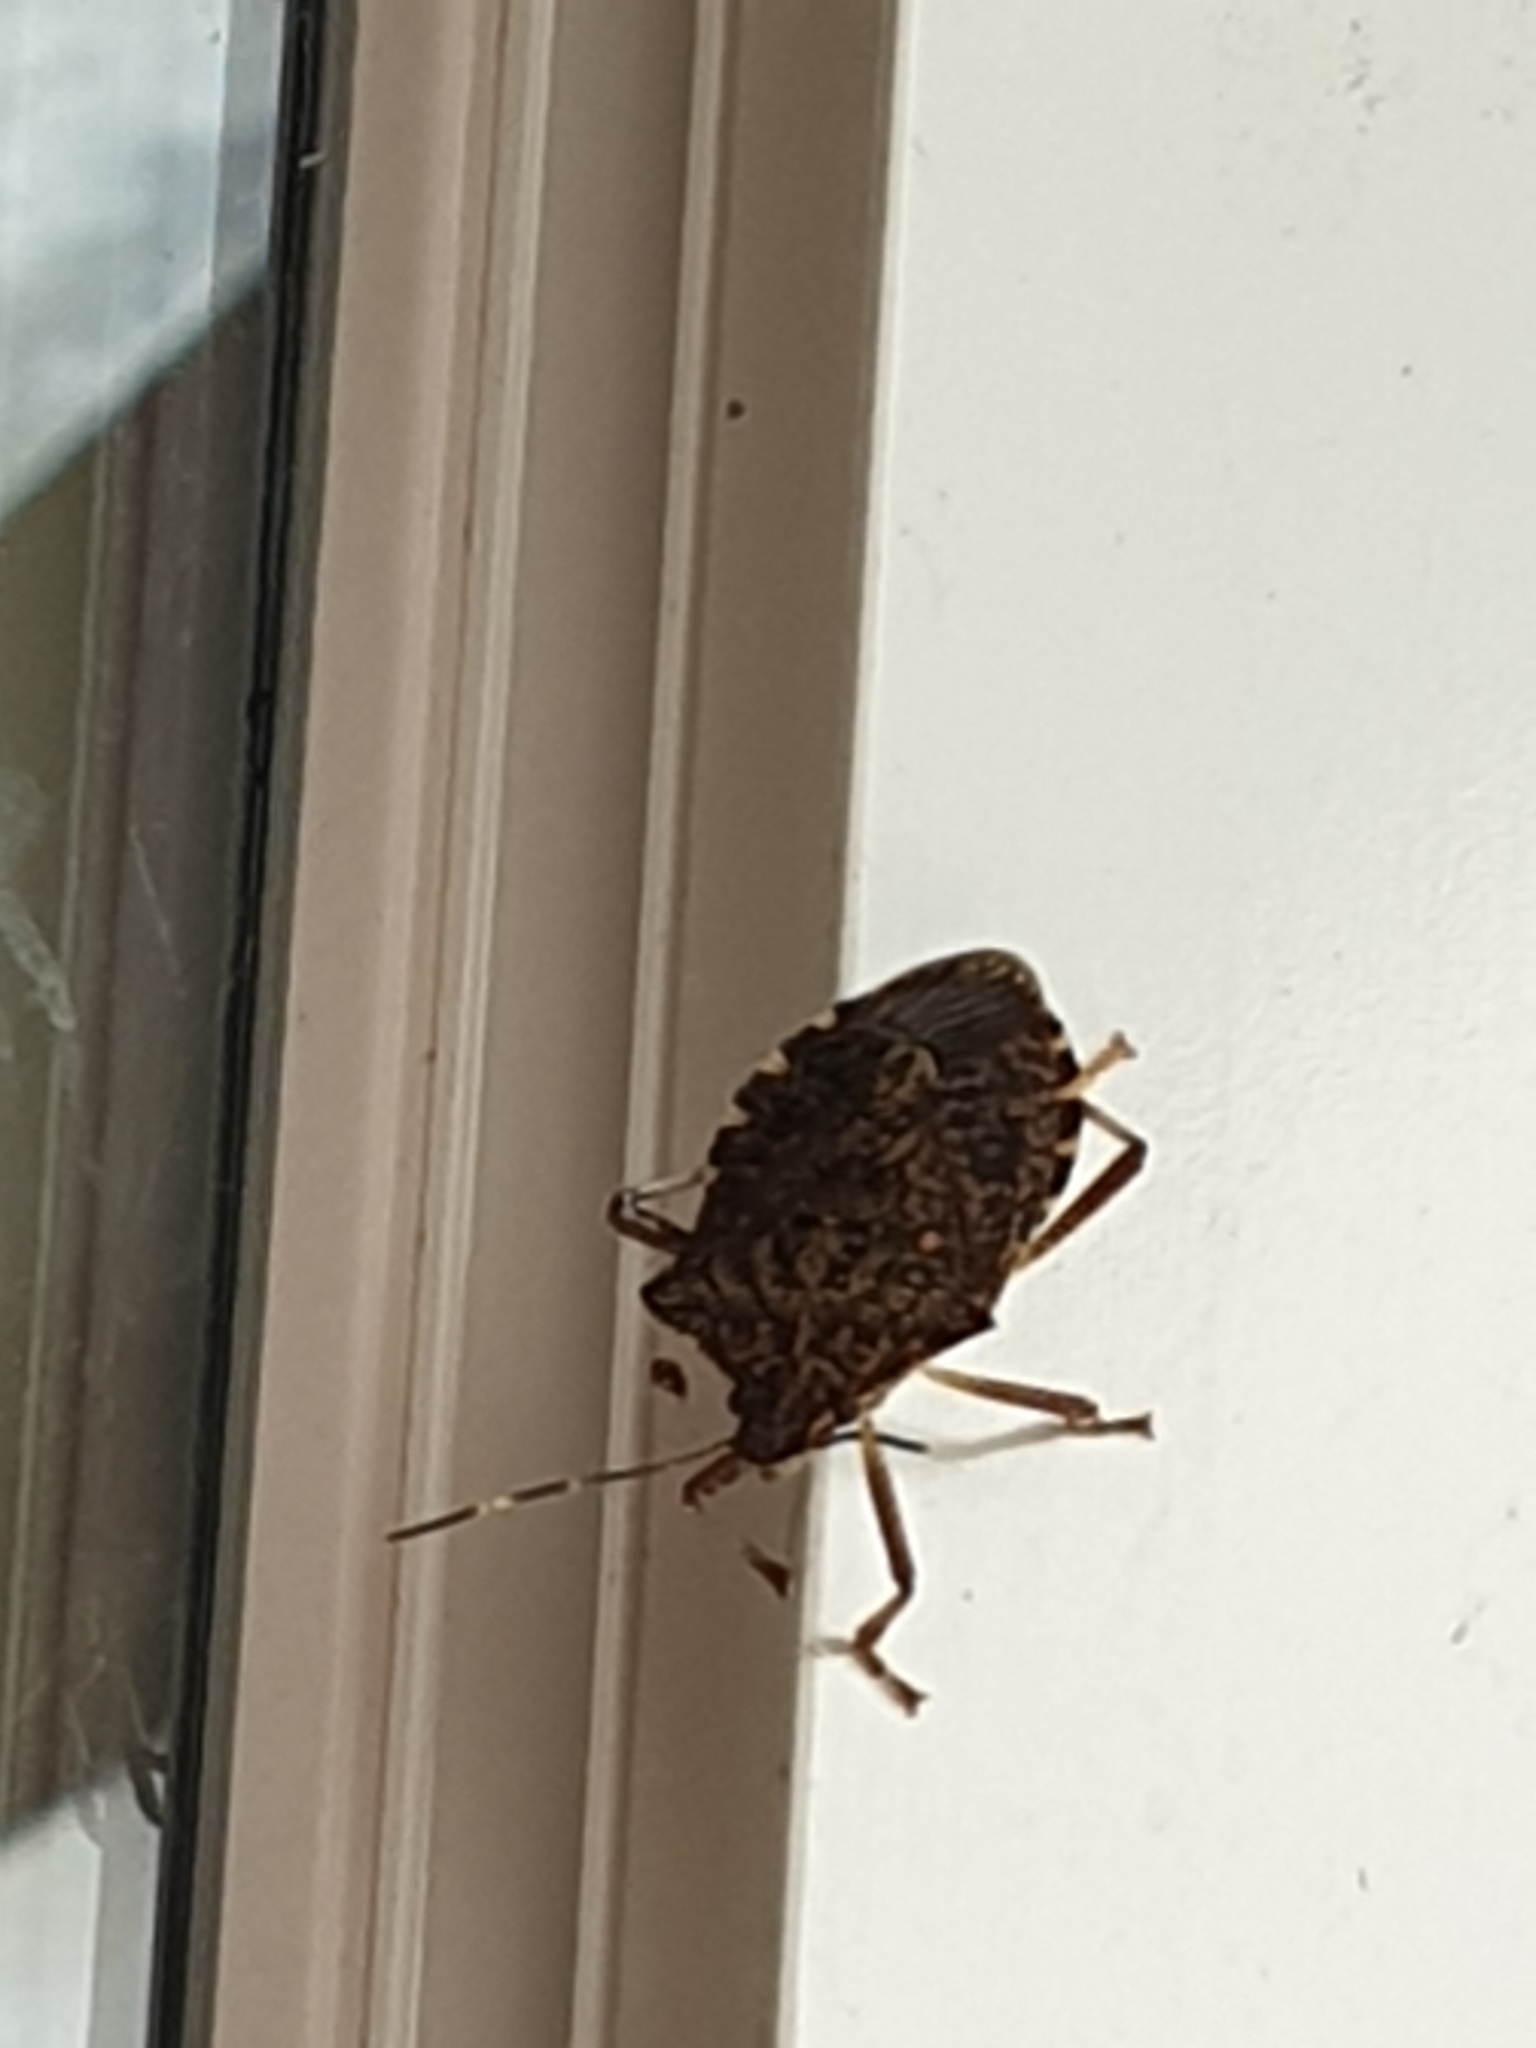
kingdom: Animalia
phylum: Arthropoda
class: Insecta
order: Hemiptera
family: Pentatomidae
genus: Halyomorpha
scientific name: Halyomorpha halys
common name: Brown marmorated stink bug
